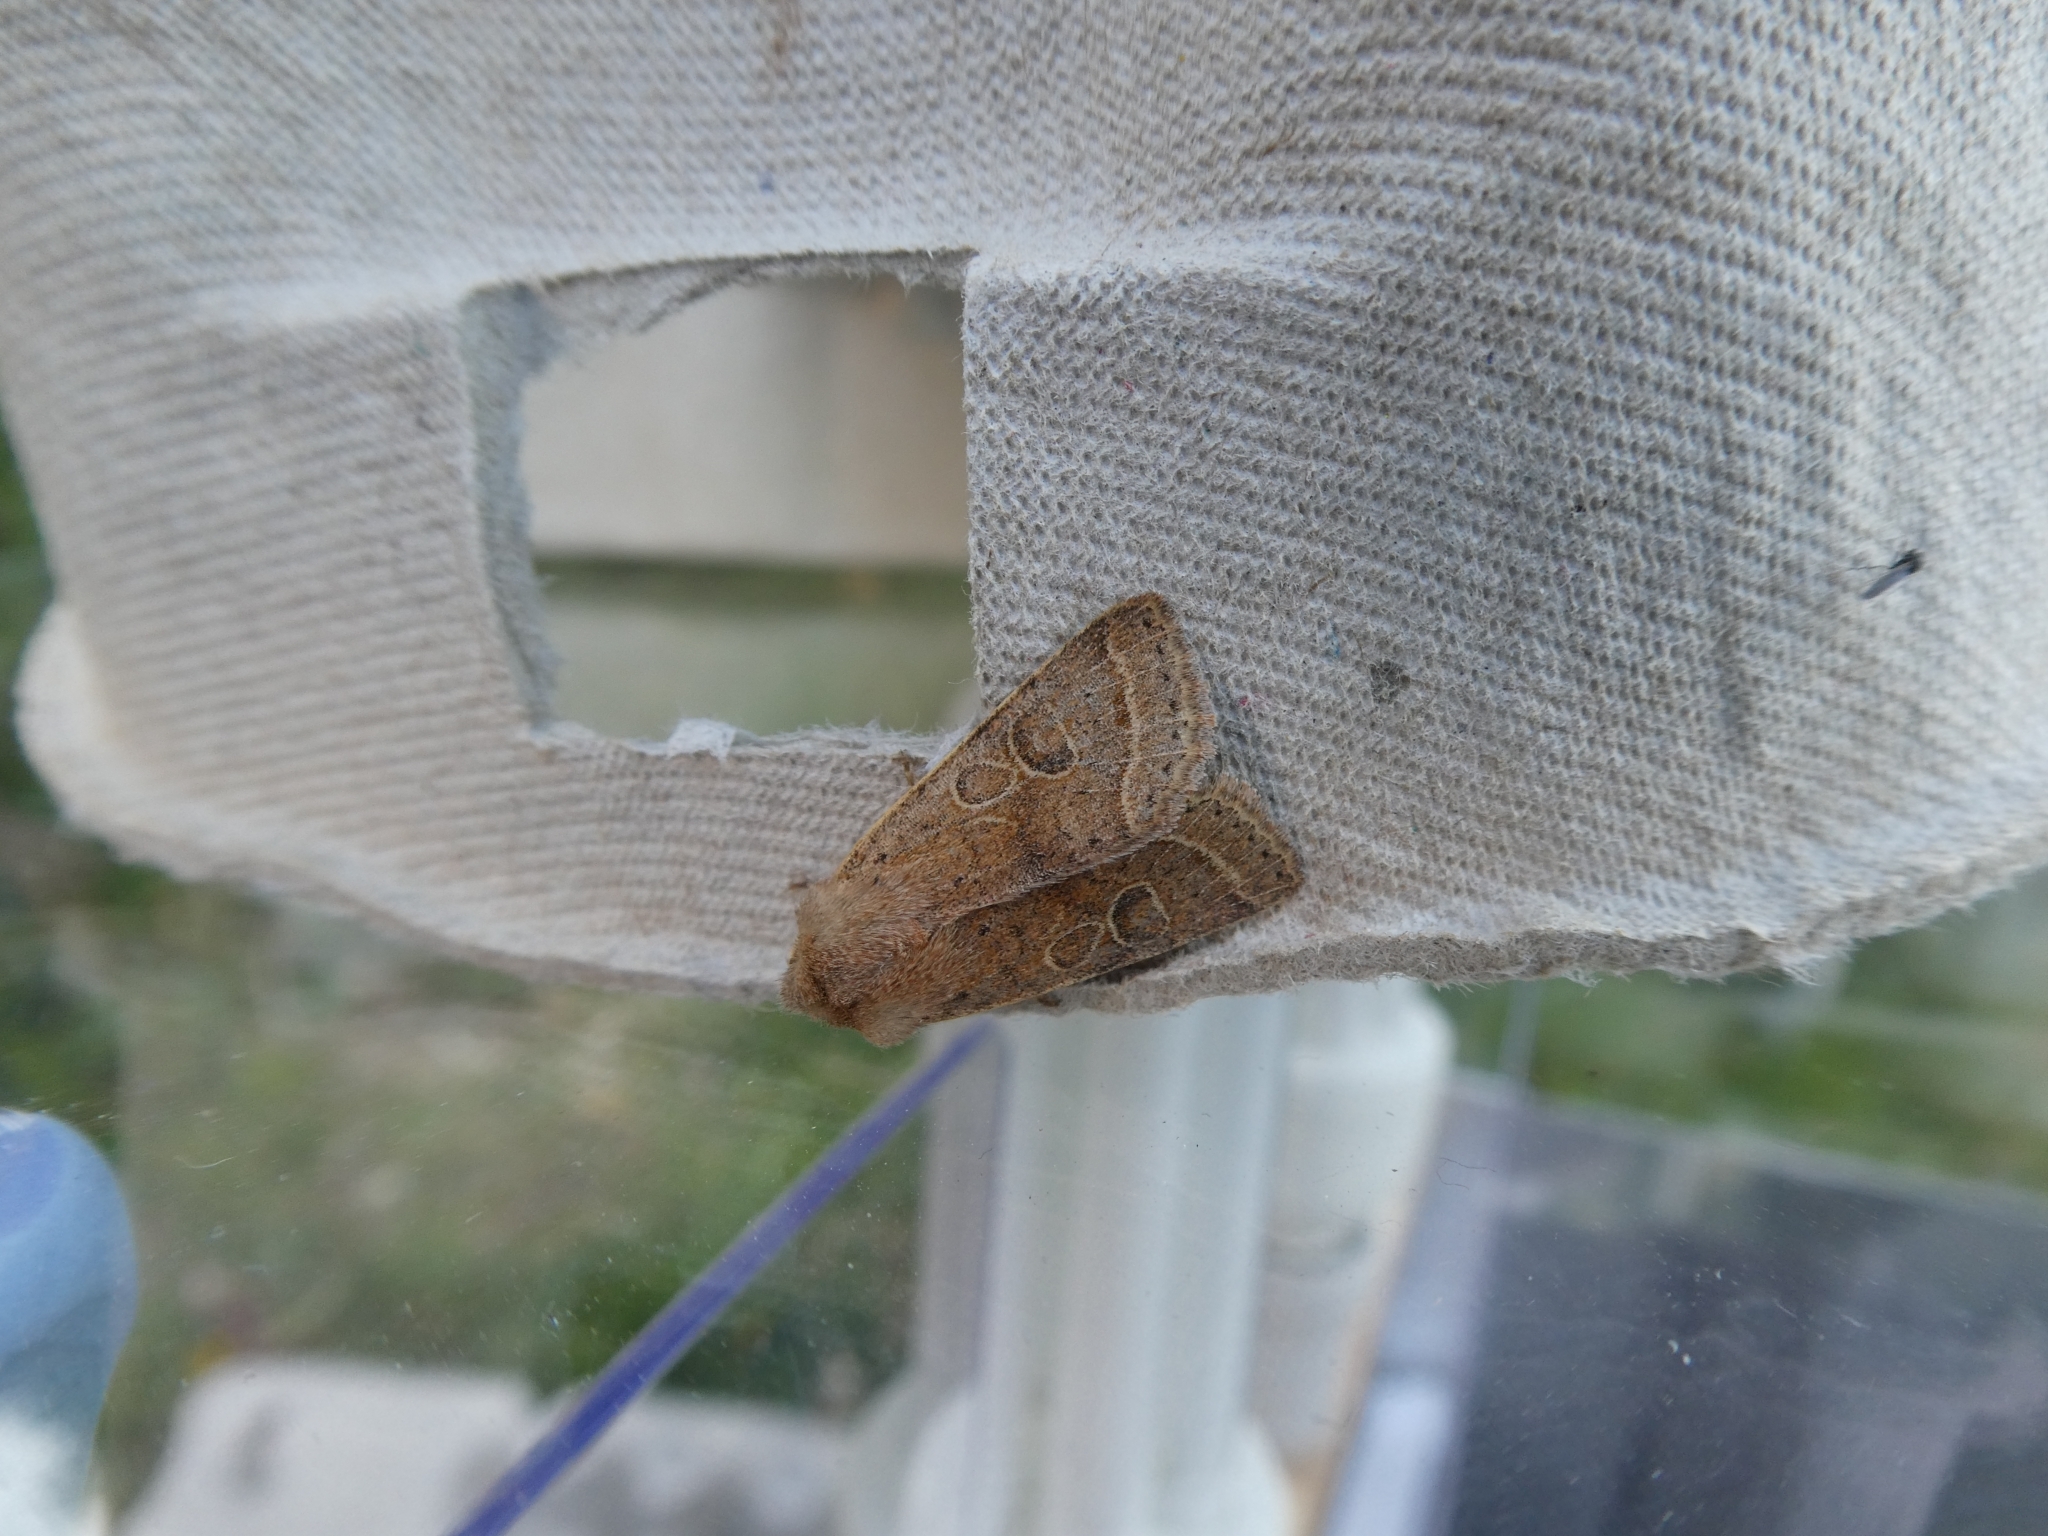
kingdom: Animalia
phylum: Arthropoda
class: Insecta
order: Lepidoptera
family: Noctuidae
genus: Orthosia
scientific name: Orthosia cerasi
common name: Common quaker
